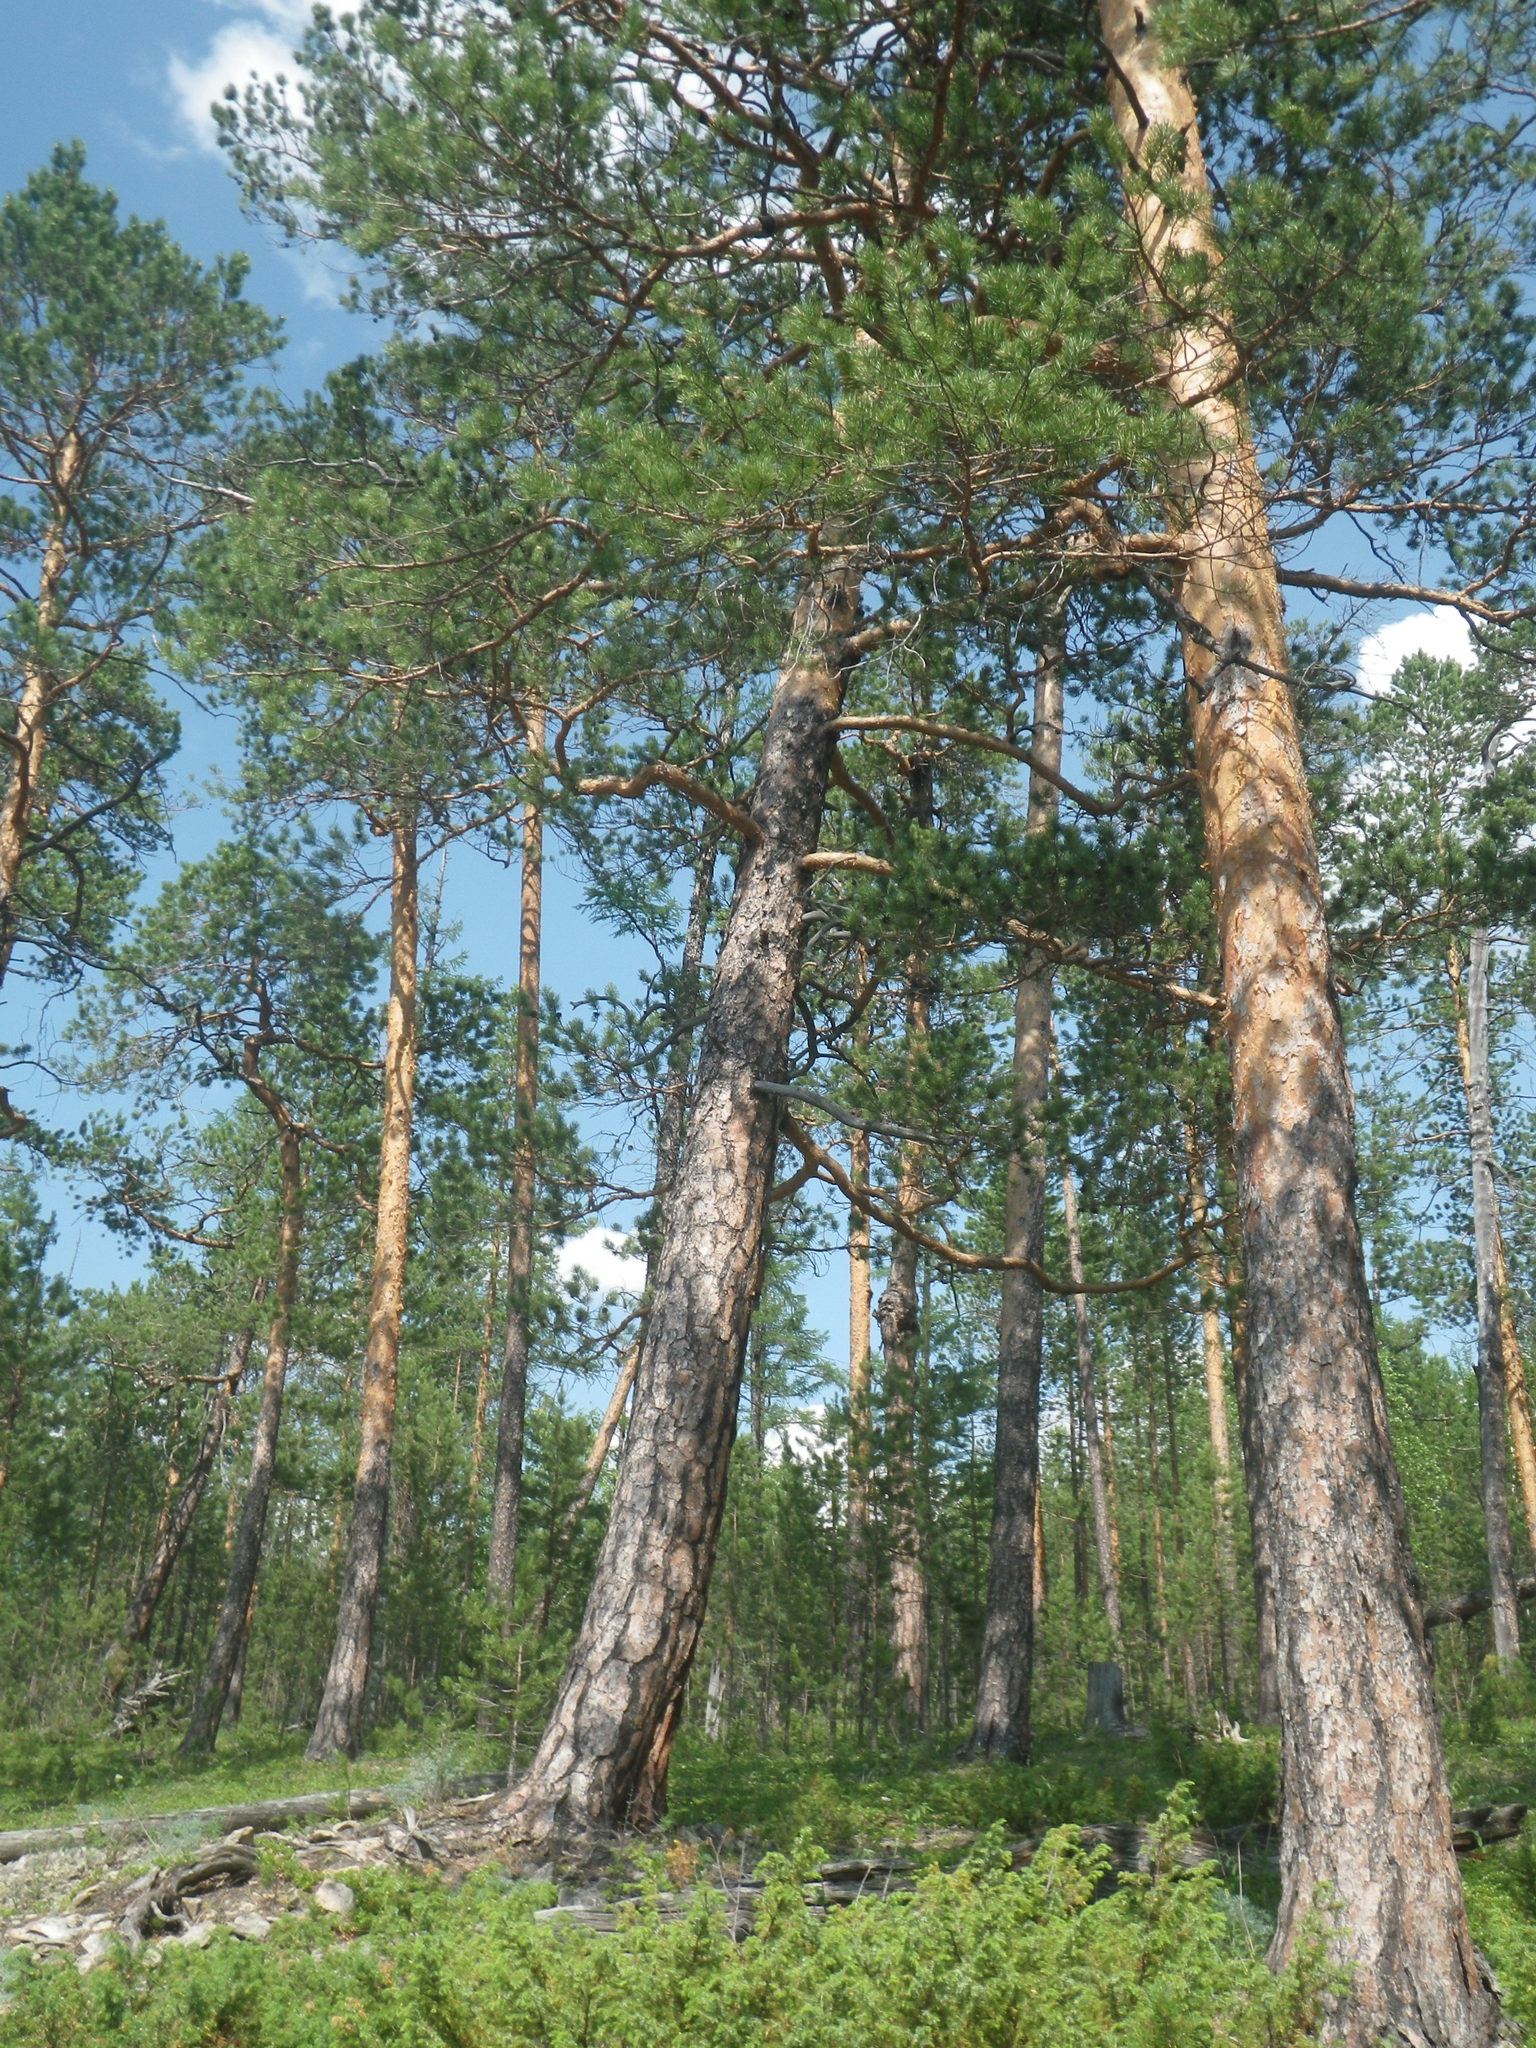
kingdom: Plantae
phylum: Tracheophyta
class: Pinopsida
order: Pinales
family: Pinaceae
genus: Pinus
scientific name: Pinus sylvestris
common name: Scots pine
